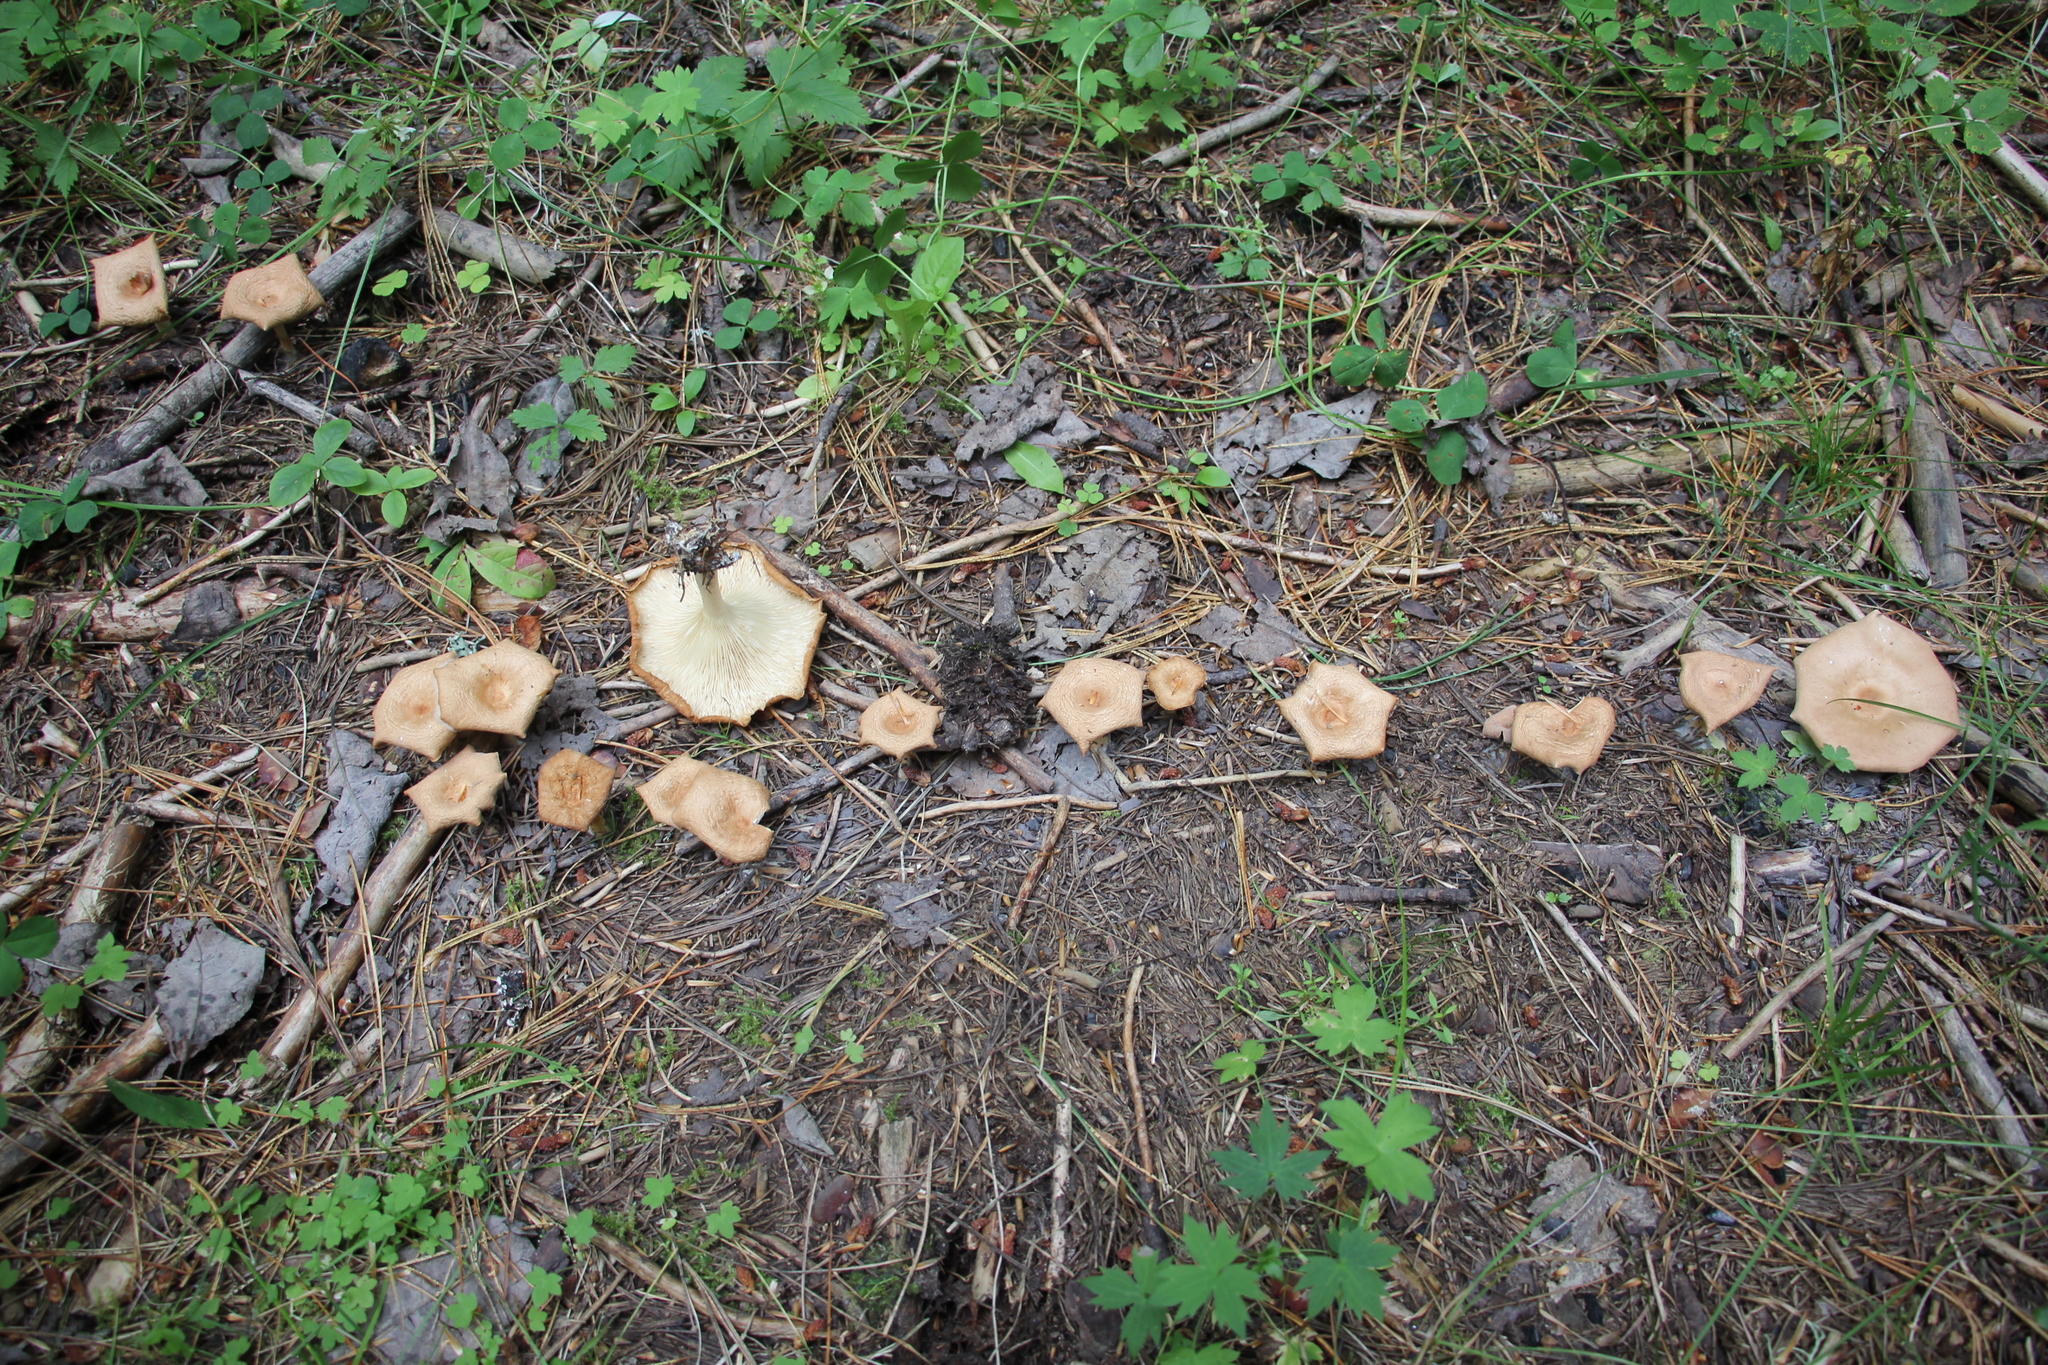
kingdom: Fungi
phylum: Basidiomycota
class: Agaricomycetes
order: Agaricales
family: Tricholomataceae
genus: Infundibulicybe
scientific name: Infundibulicybe gibba
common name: Common funnel
